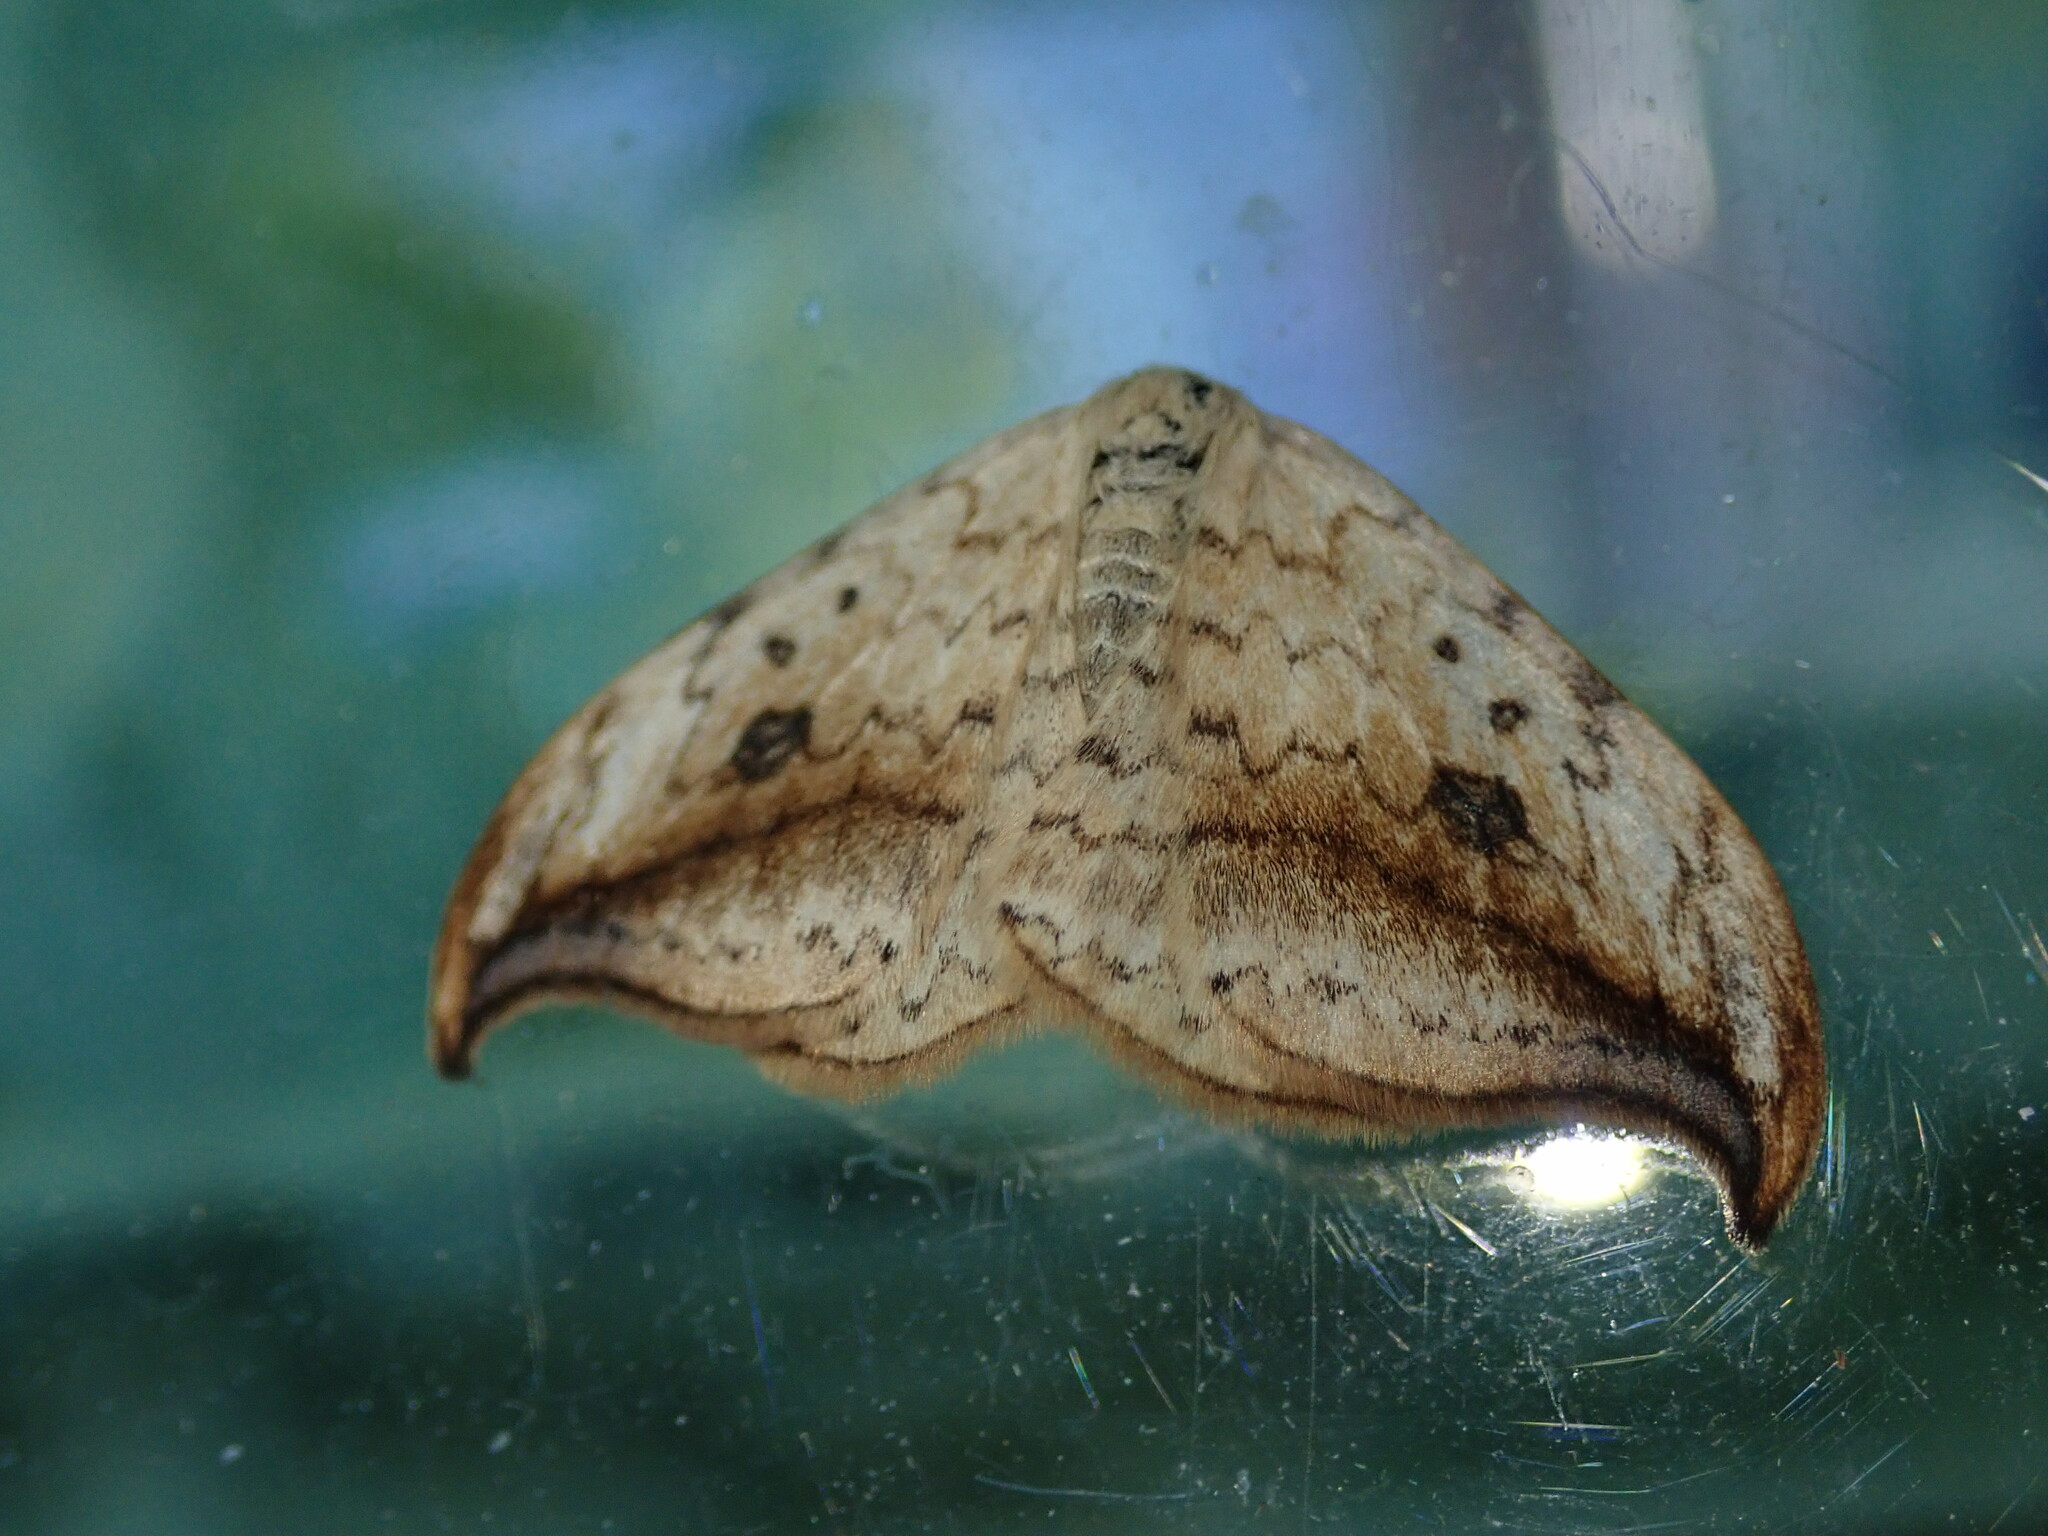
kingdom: Animalia
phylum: Arthropoda
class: Insecta
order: Lepidoptera
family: Drepanidae
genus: Drepana
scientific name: Drepana falcataria
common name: Pebble hook-tip
